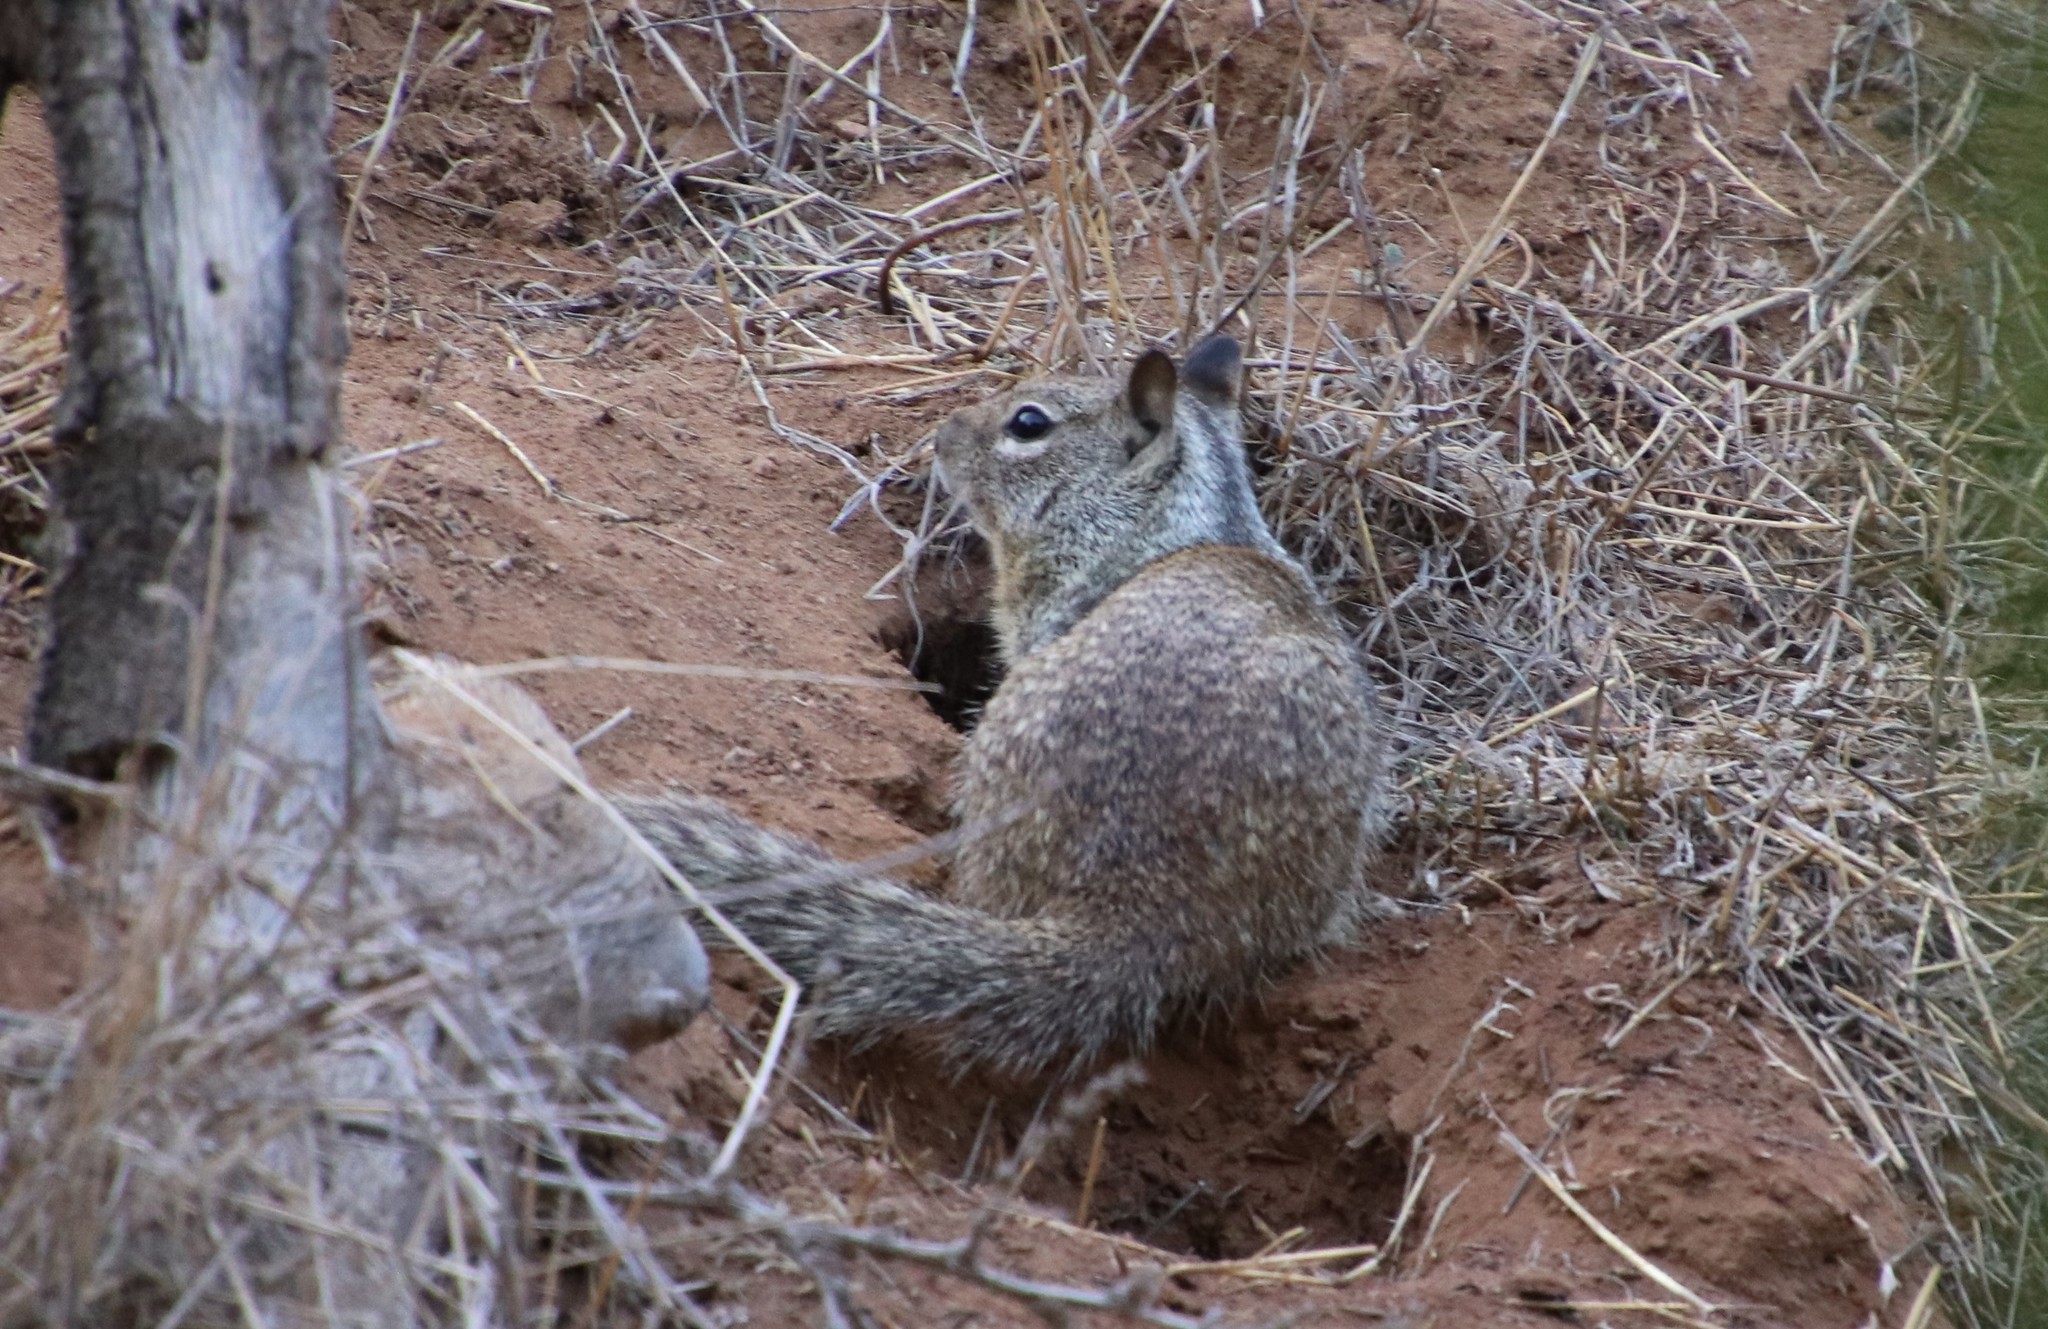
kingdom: Animalia
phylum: Chordata
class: Mammalia
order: Rodentia
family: Sciuridae
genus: Otospermophilus
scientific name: Otospermophilus beecheyi
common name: California ground squirrel
